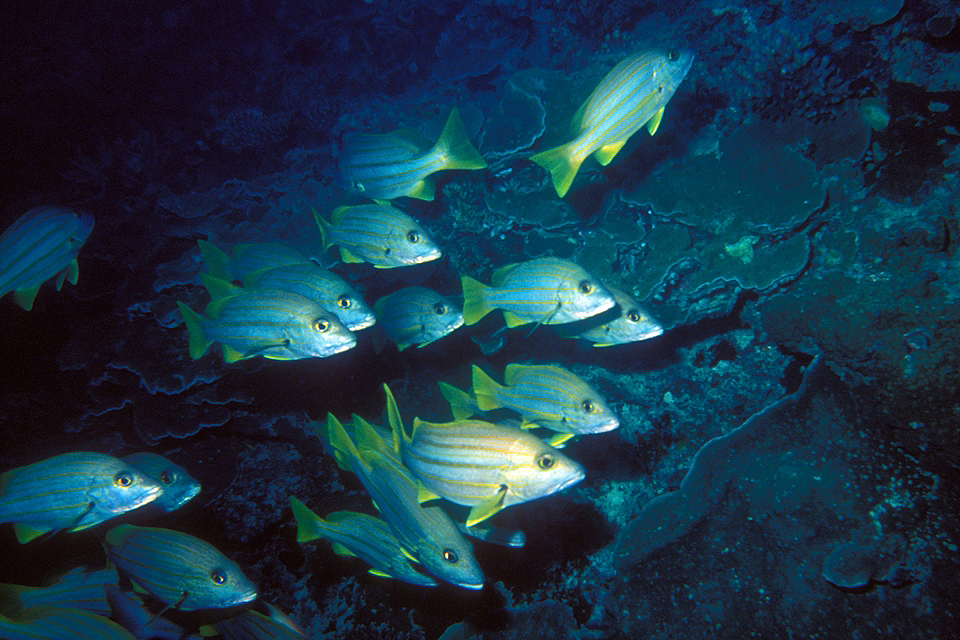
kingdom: Animalia
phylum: Chordata
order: Perciformes
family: Lutjanidae
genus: Lutjanus
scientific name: Lutjanus carponotatus
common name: Spanish flag
